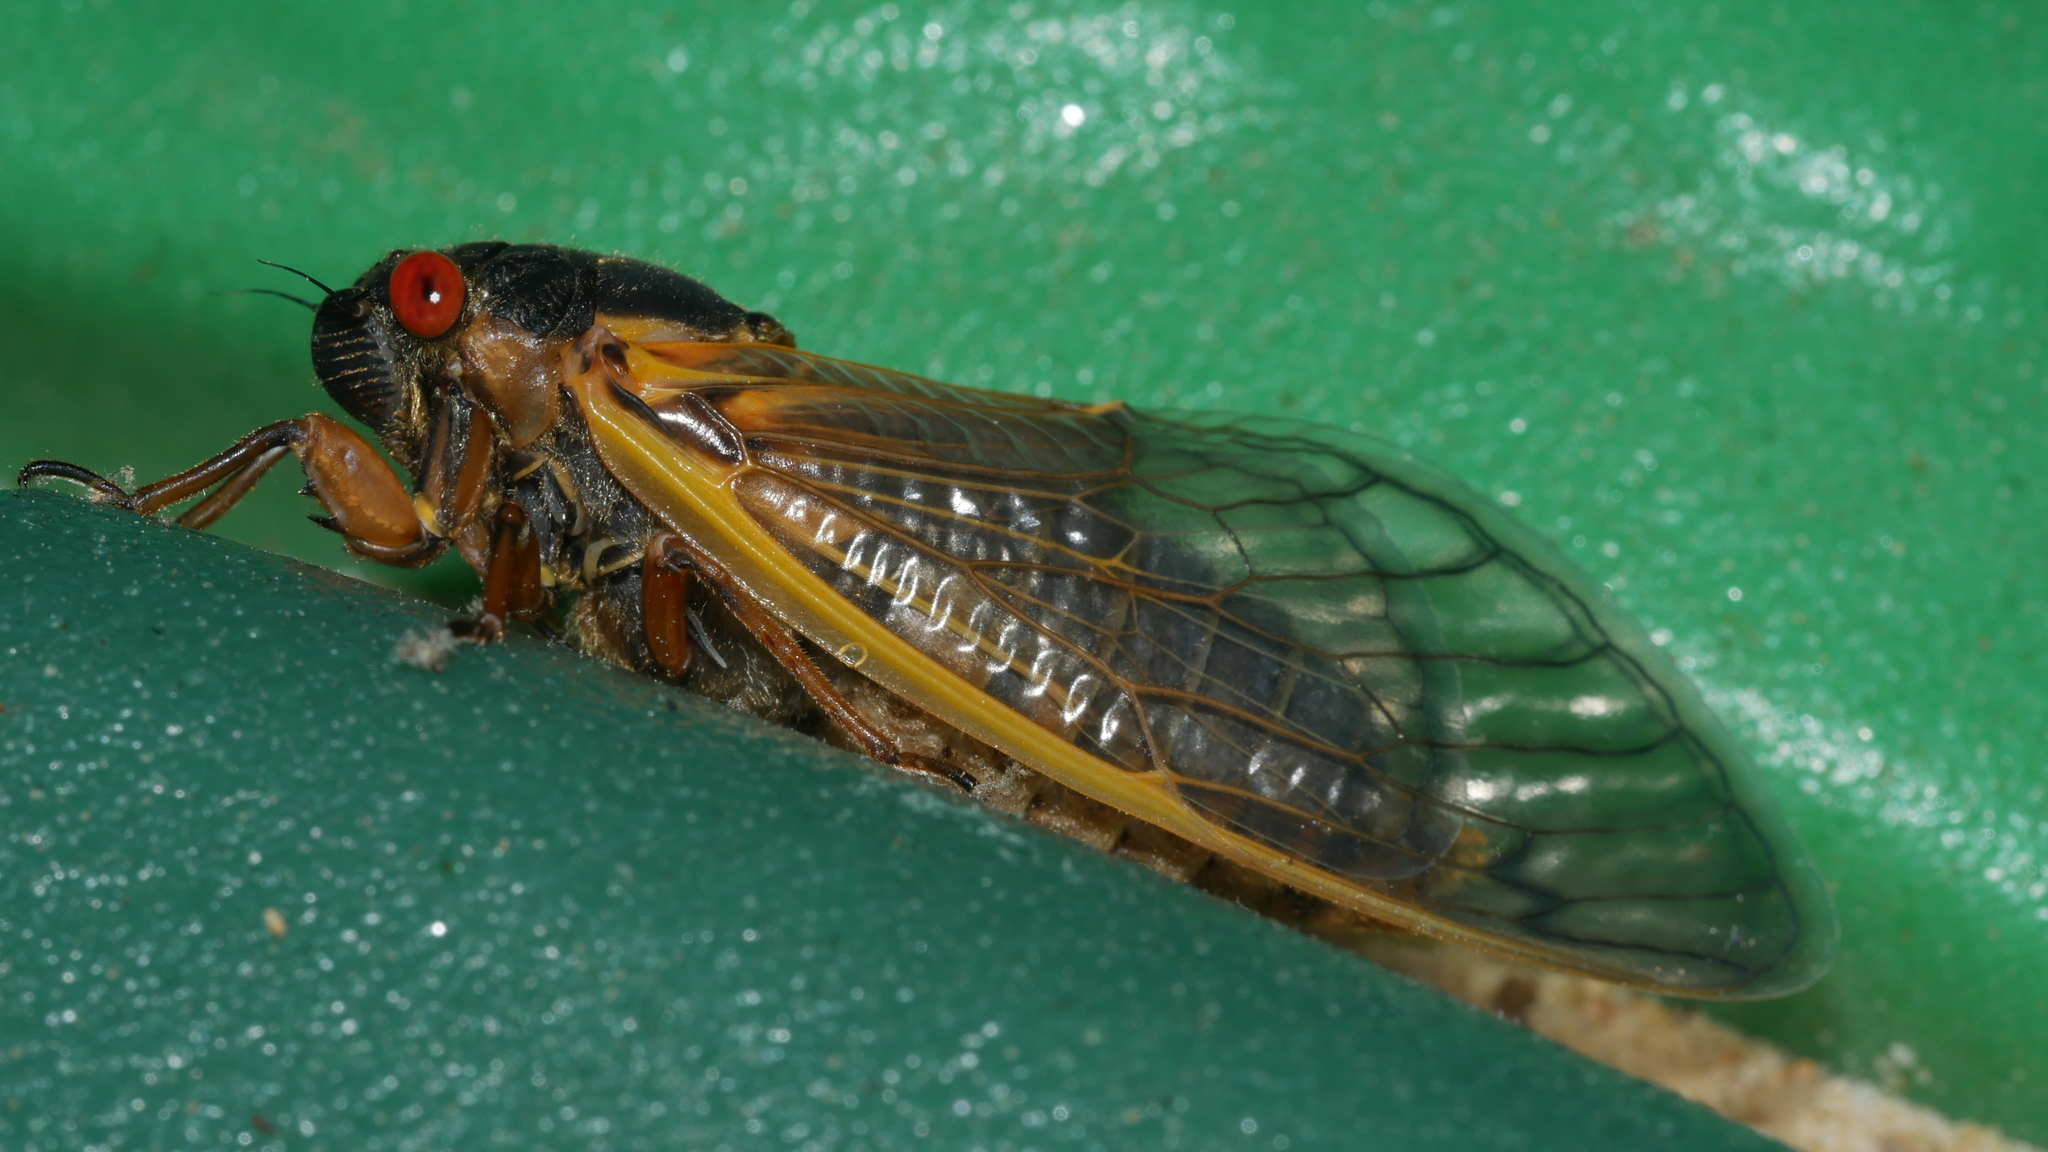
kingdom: Animalia
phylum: Arthropoda
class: Insecta
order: Hemiptera
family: Cicadidae
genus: Magicicada
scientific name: Magicicada septendecim
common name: Periodical cicada
